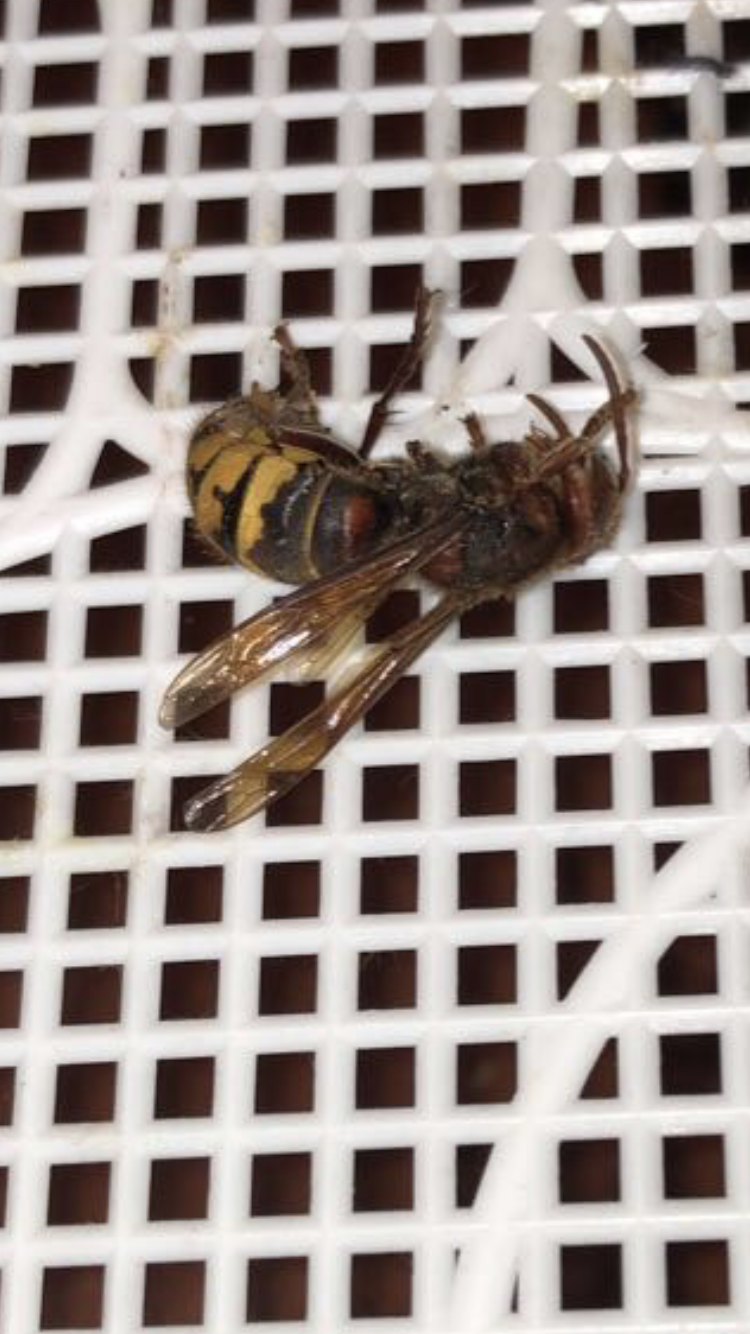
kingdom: Animalia
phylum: Arthropoda
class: Insecta
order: Hymenoptera
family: Vespidae
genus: Vespa
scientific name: Vespa crabro
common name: Hornet
